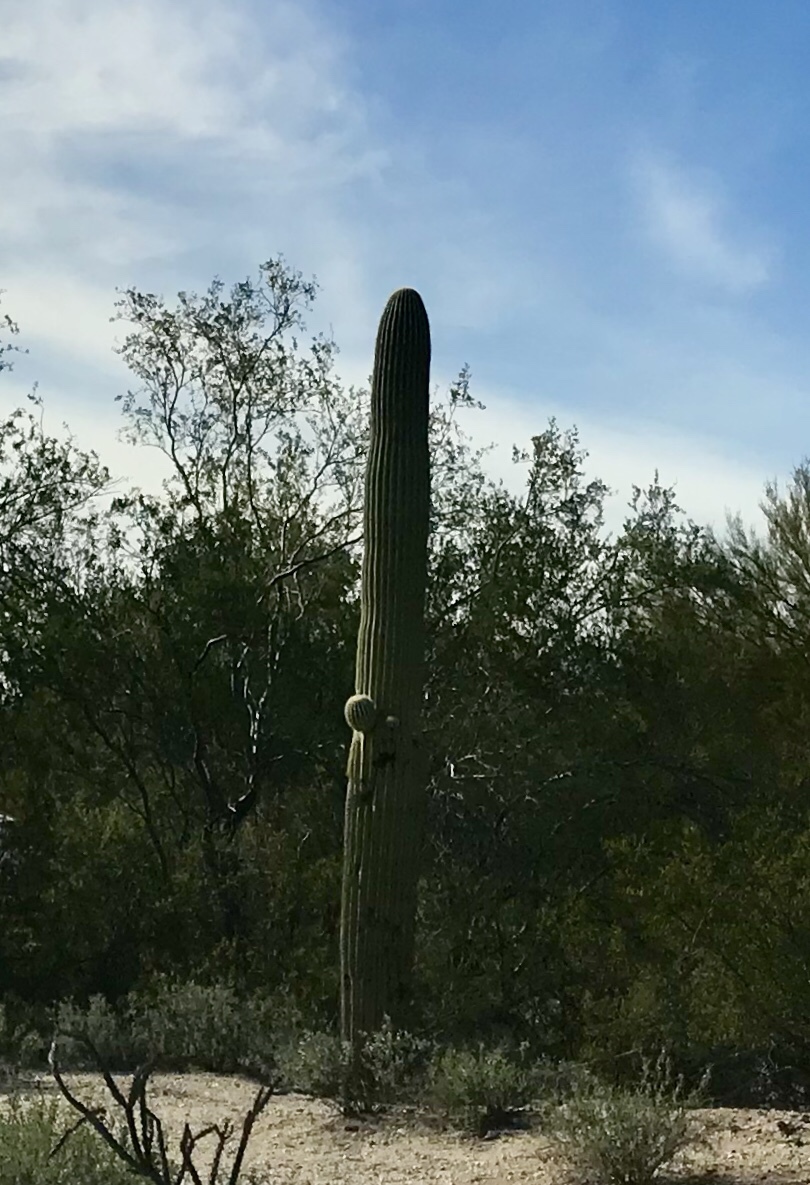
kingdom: Plantae
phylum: Tracheophyta
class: Magnoliopsida
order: Caryophyllales
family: Cactaceae
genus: Carnegiea
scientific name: Carnegiea gigantea
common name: Saguaro
